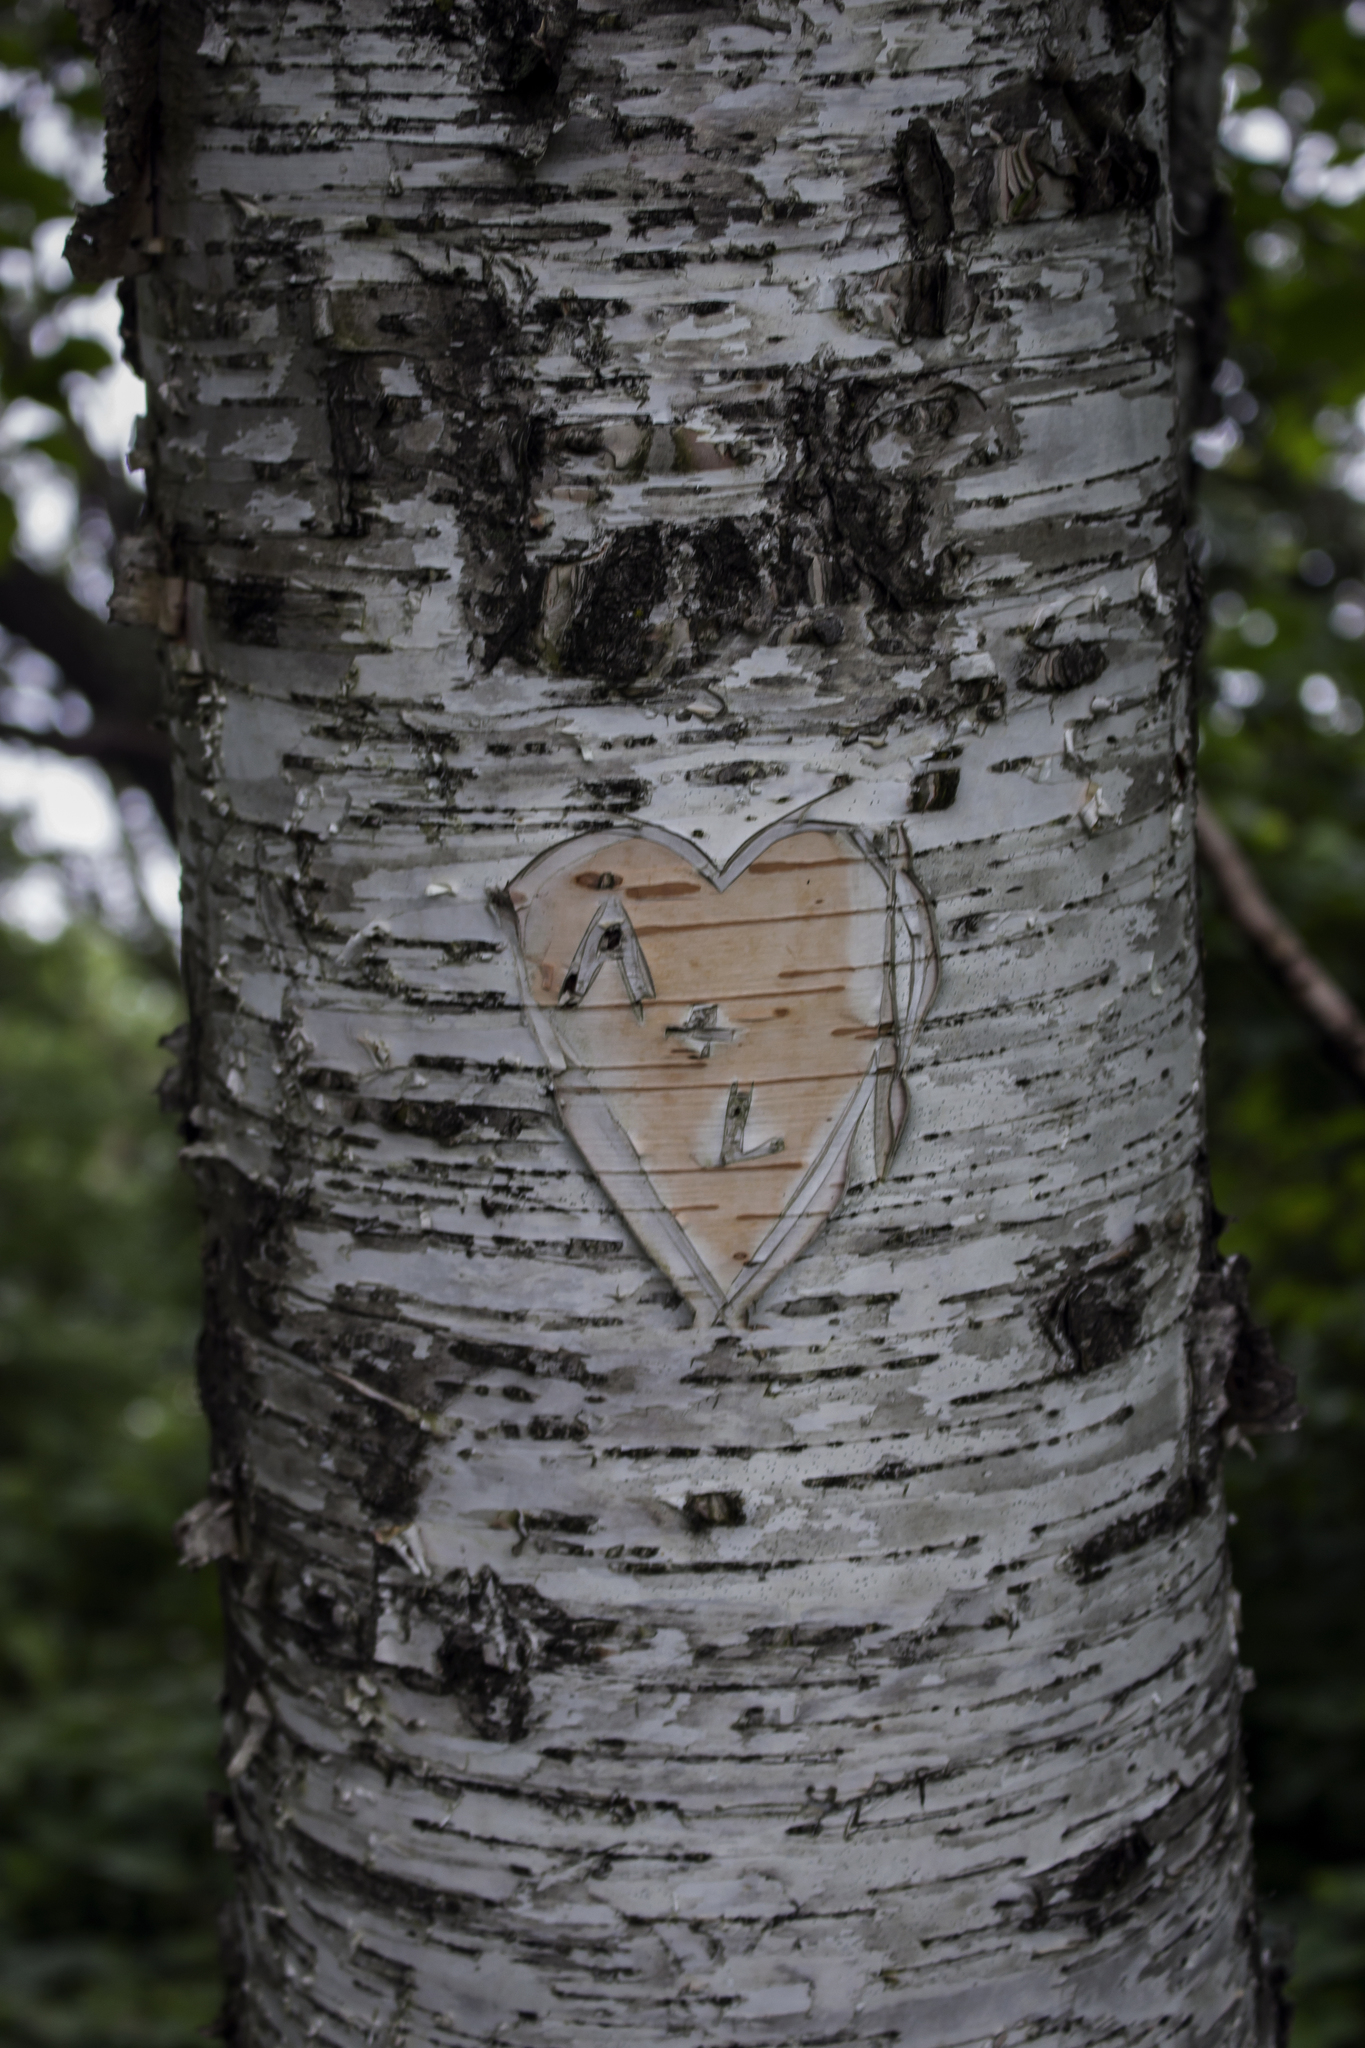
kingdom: Plantae
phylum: Tracheophyta
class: Magnoliopsida
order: Fagales
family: Betulaceae
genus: Betula
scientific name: Betula papyrifera
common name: Paper birch
